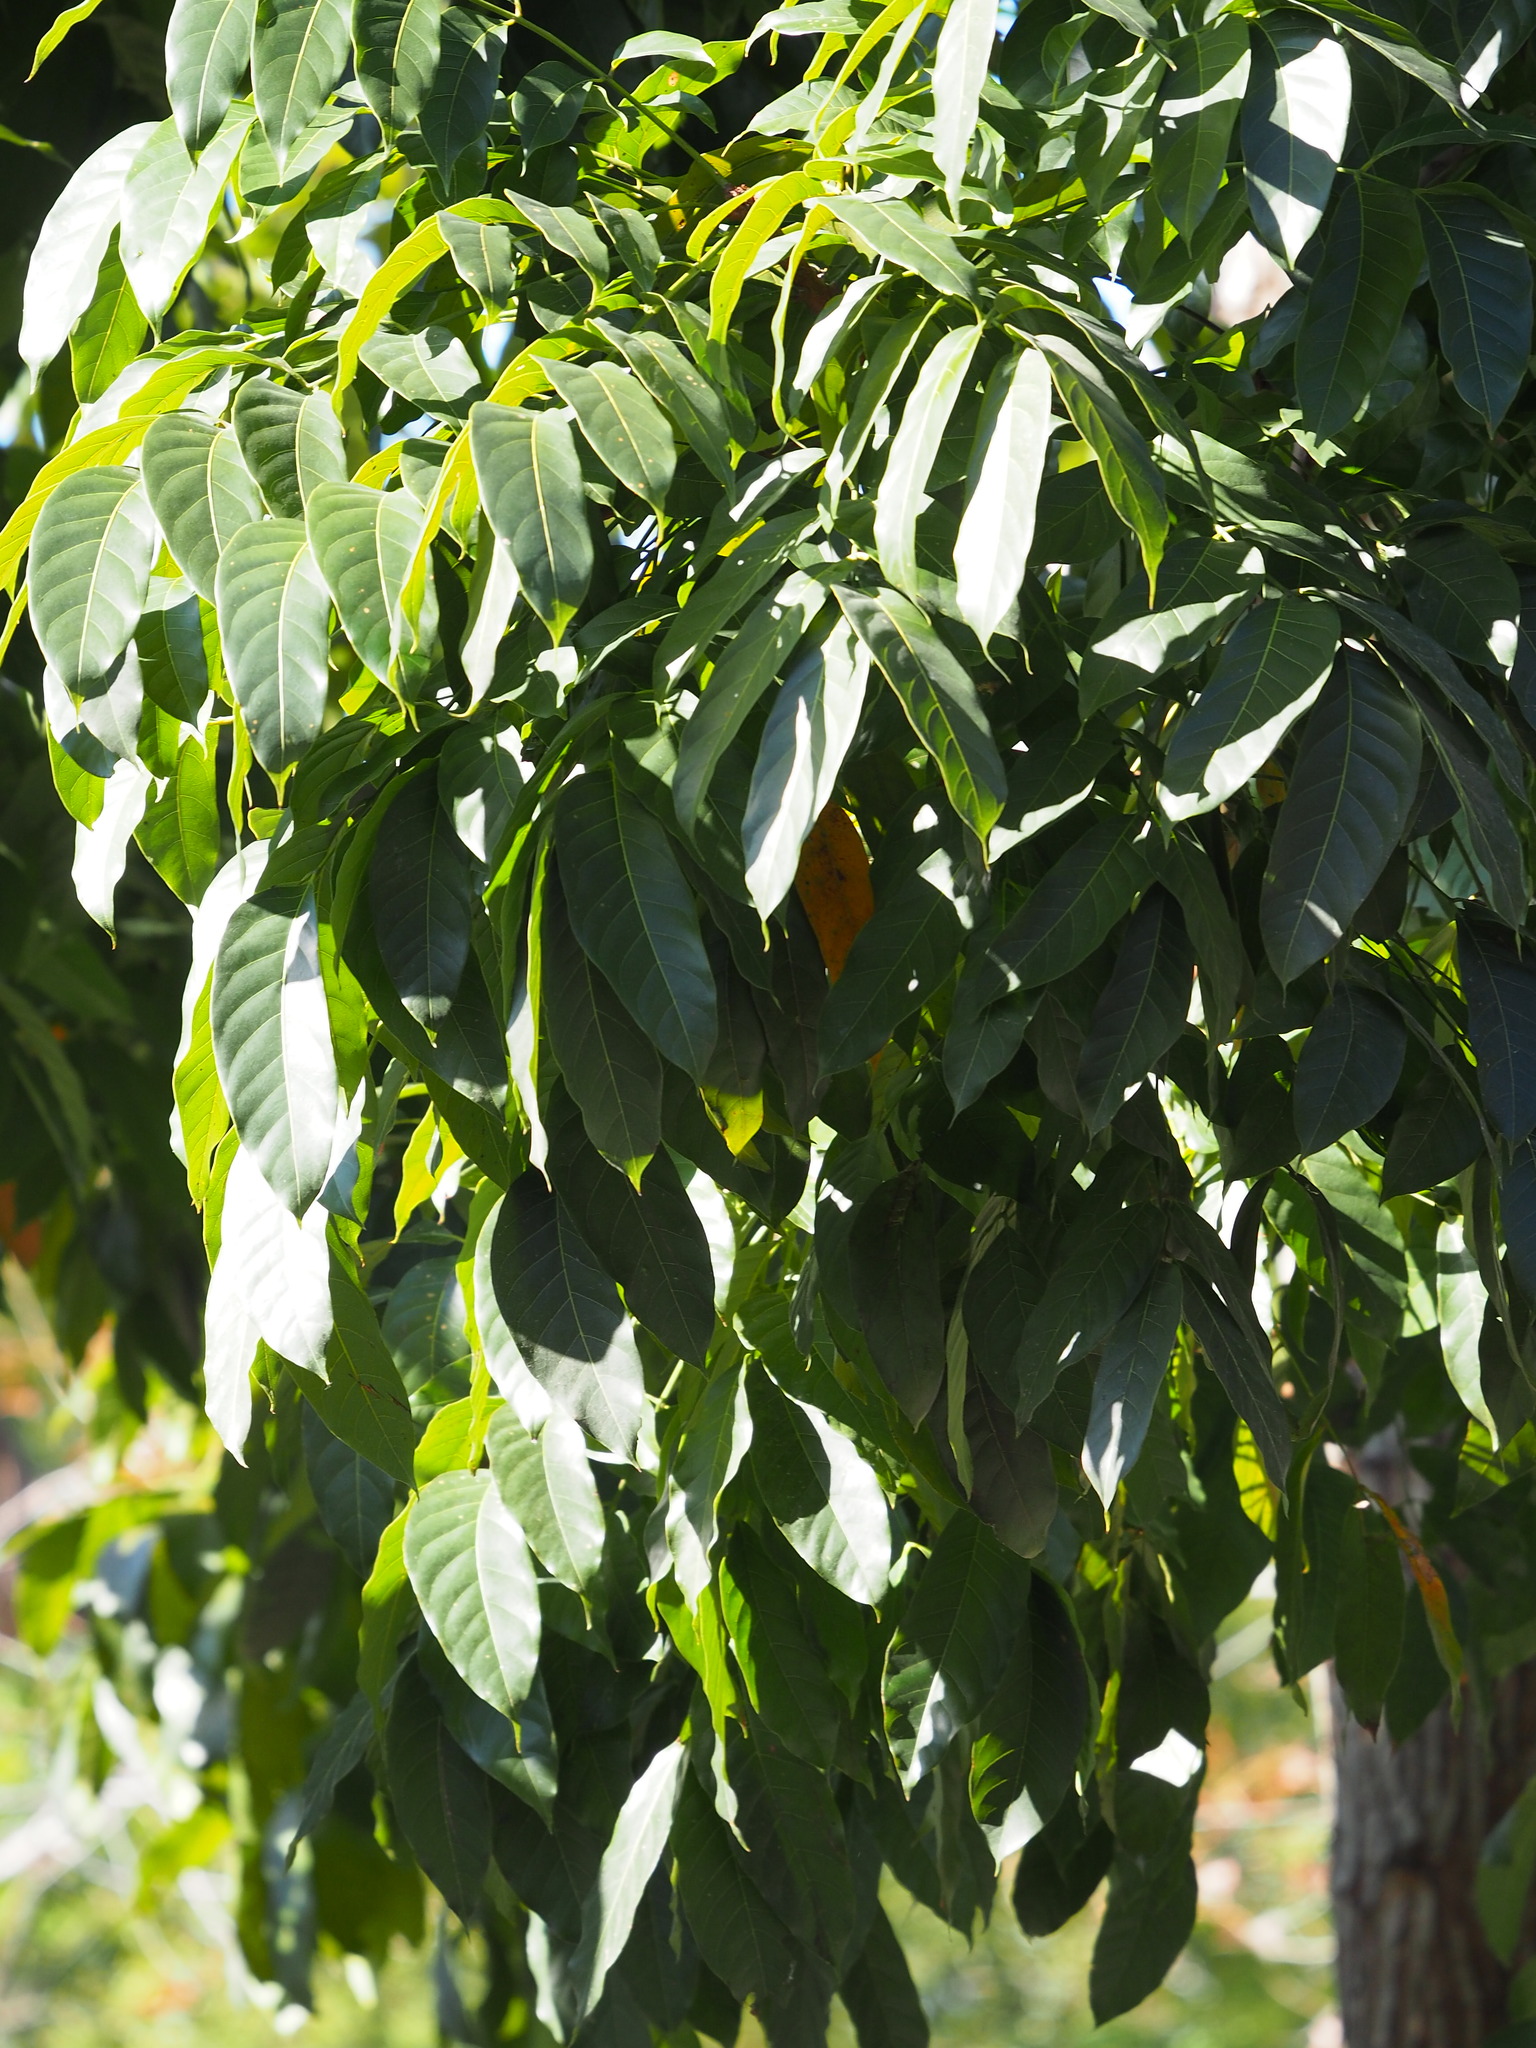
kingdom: Plantae
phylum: Tracheophyta
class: Magnoliopsida
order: Sapindales
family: Meliaceae
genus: Swietenia
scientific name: Swietenia macrophylla
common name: Honduras mahogany
